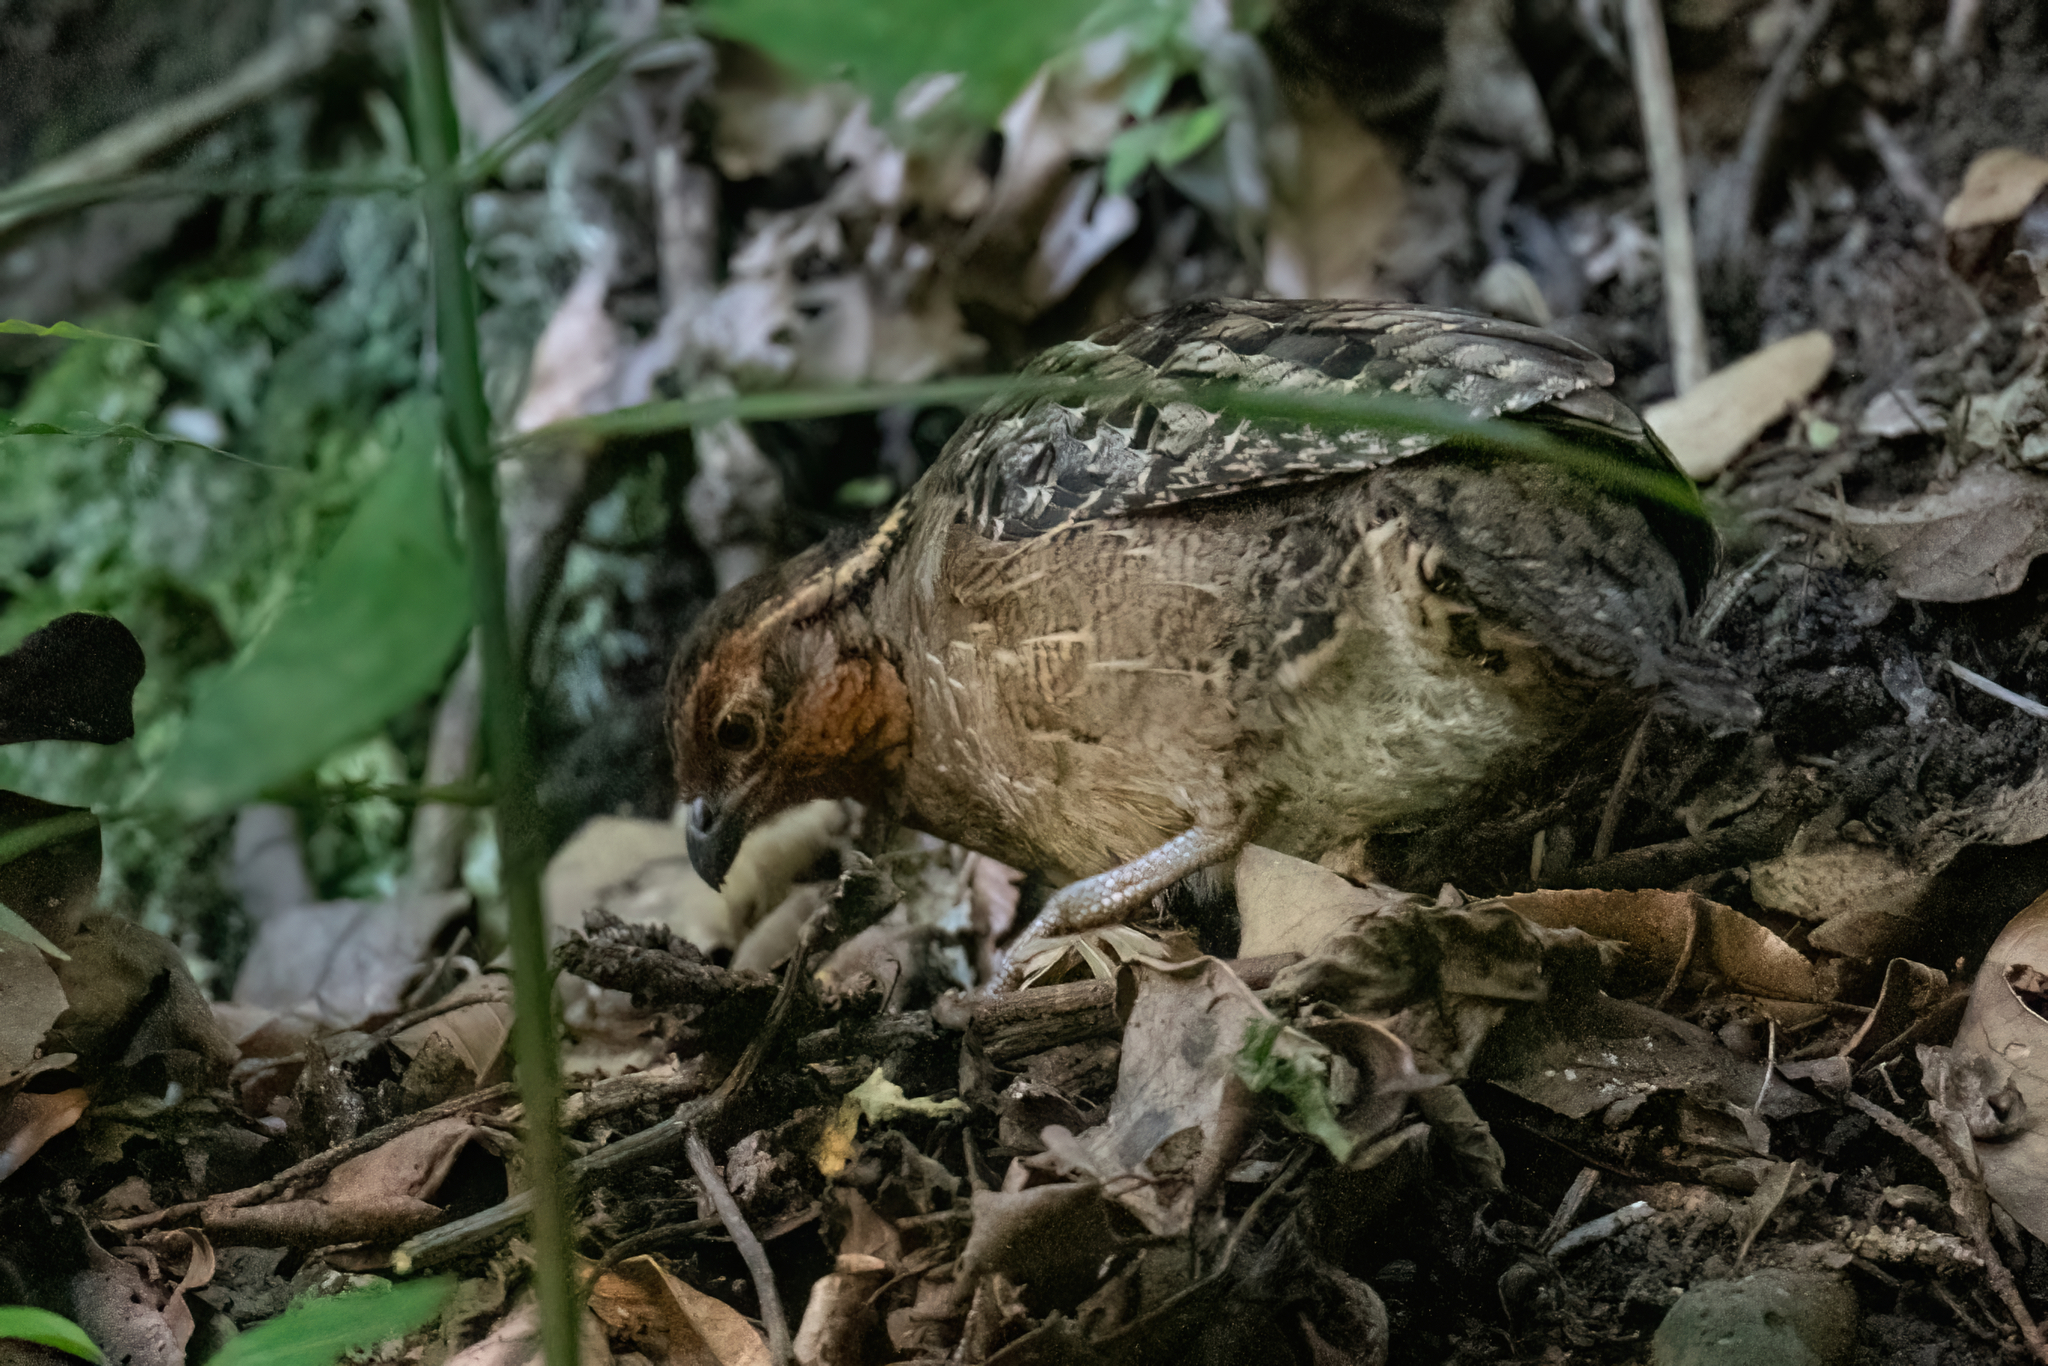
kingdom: Animalia
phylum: Chordata
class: Aves
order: Galliformes
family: Odontophoridae
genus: Dactylortyx
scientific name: Dactylortyx thoracicus
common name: Singing quail
